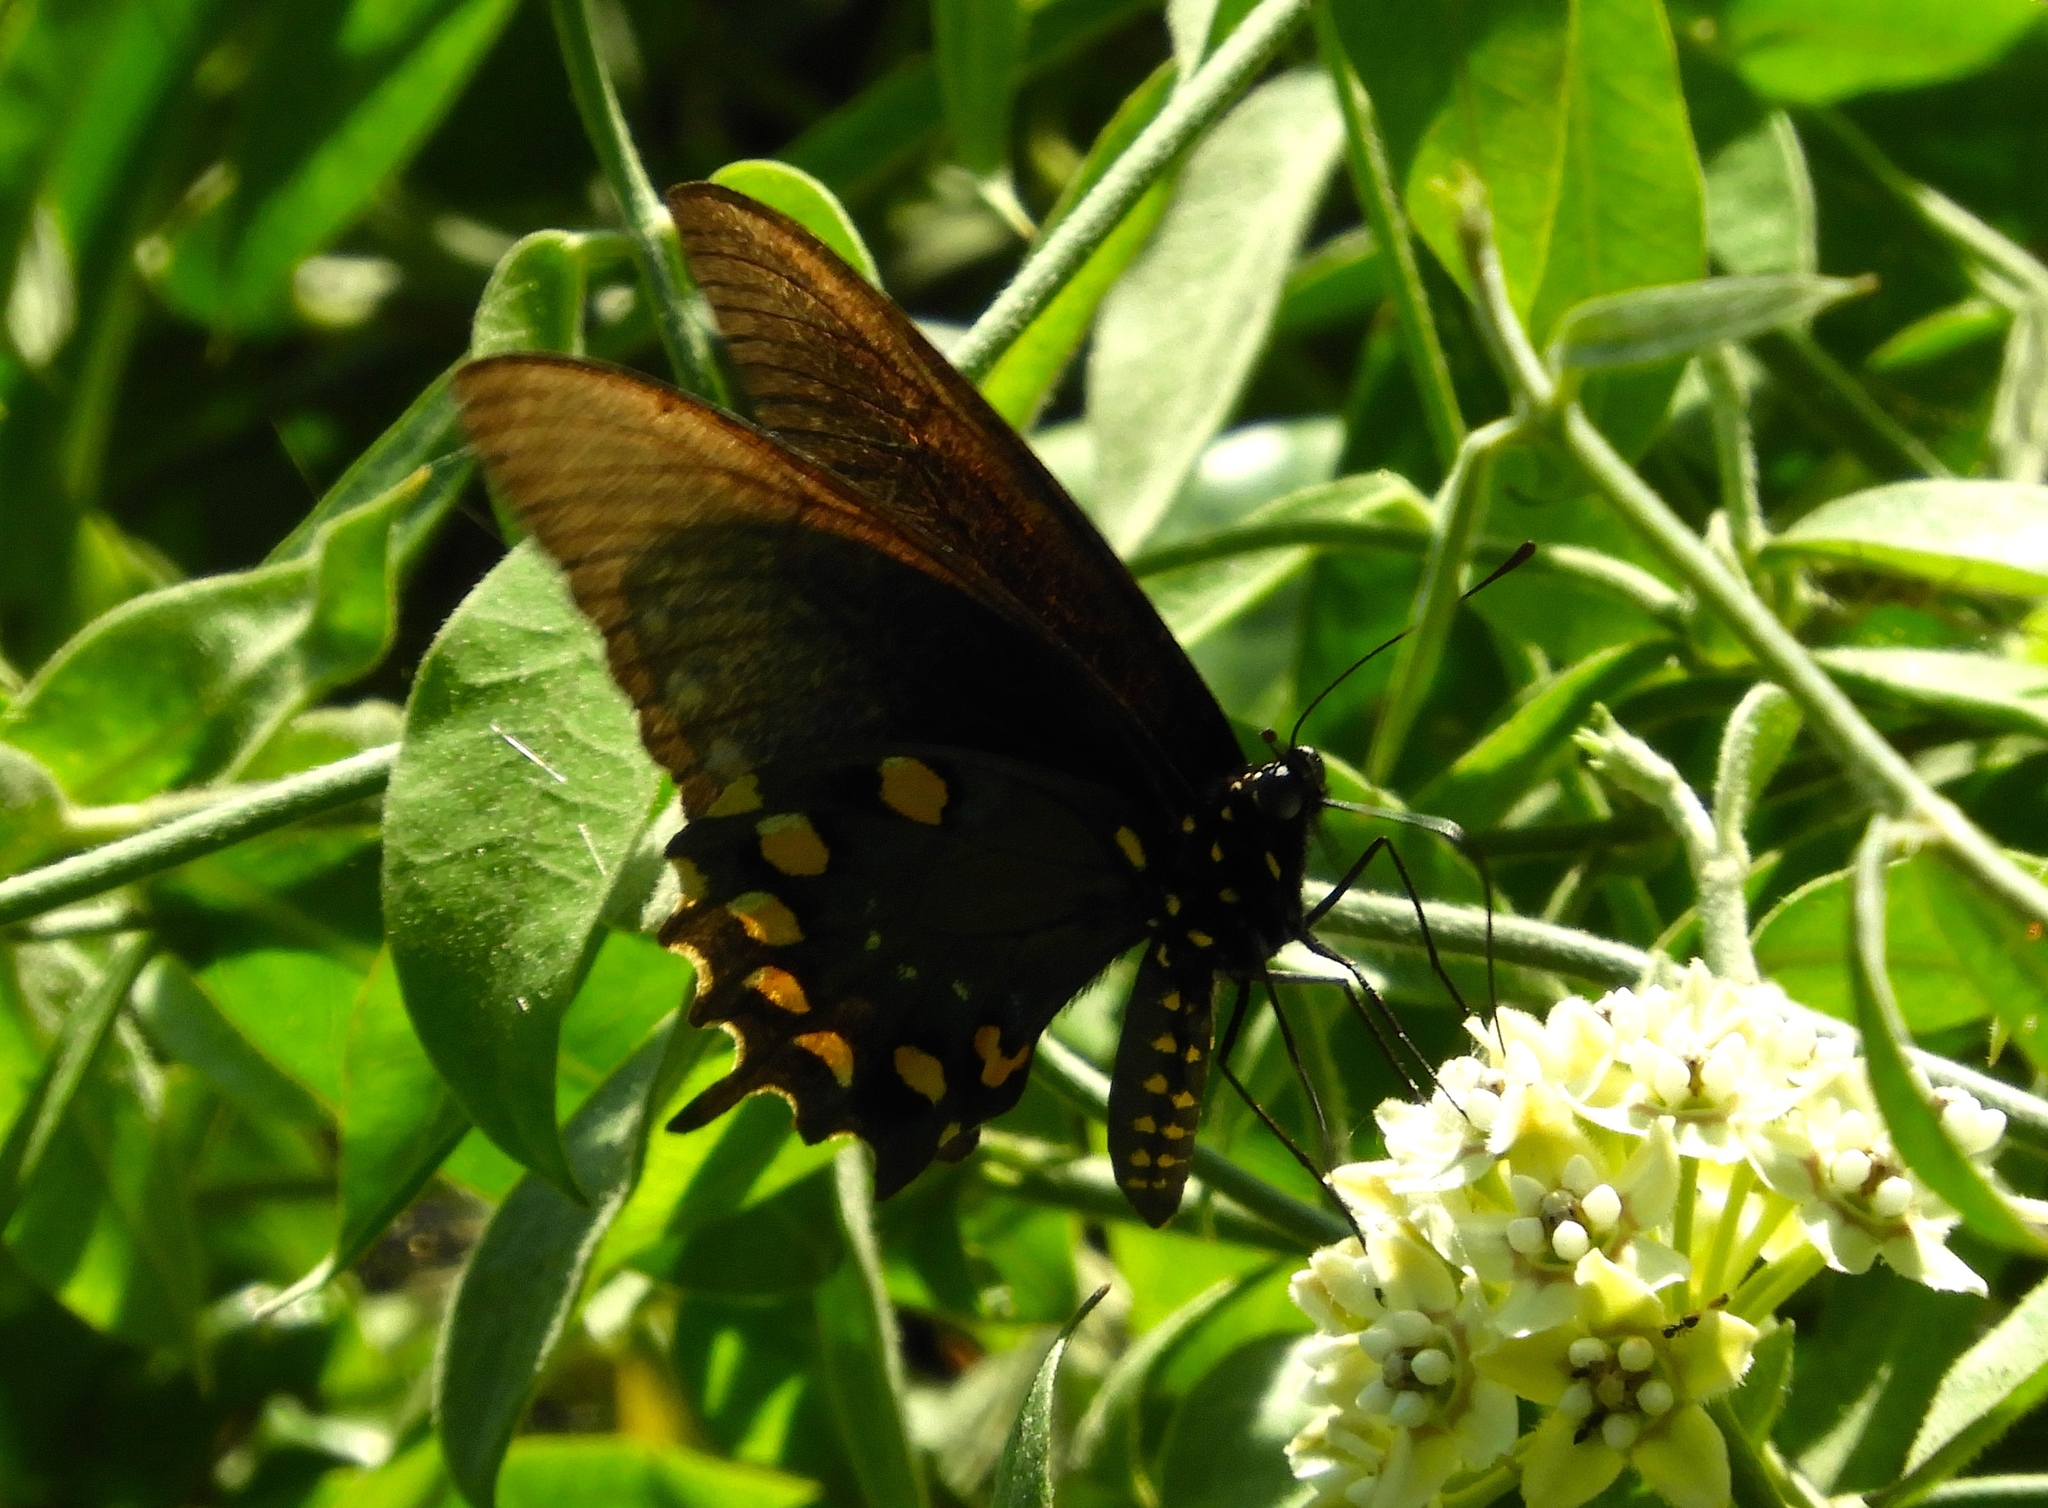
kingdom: Animalia
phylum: Arthropoda
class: Insecta
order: Lepidoptera
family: Papilionidae
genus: Battus
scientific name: Battus philenor
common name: Pipevine swallowtail
